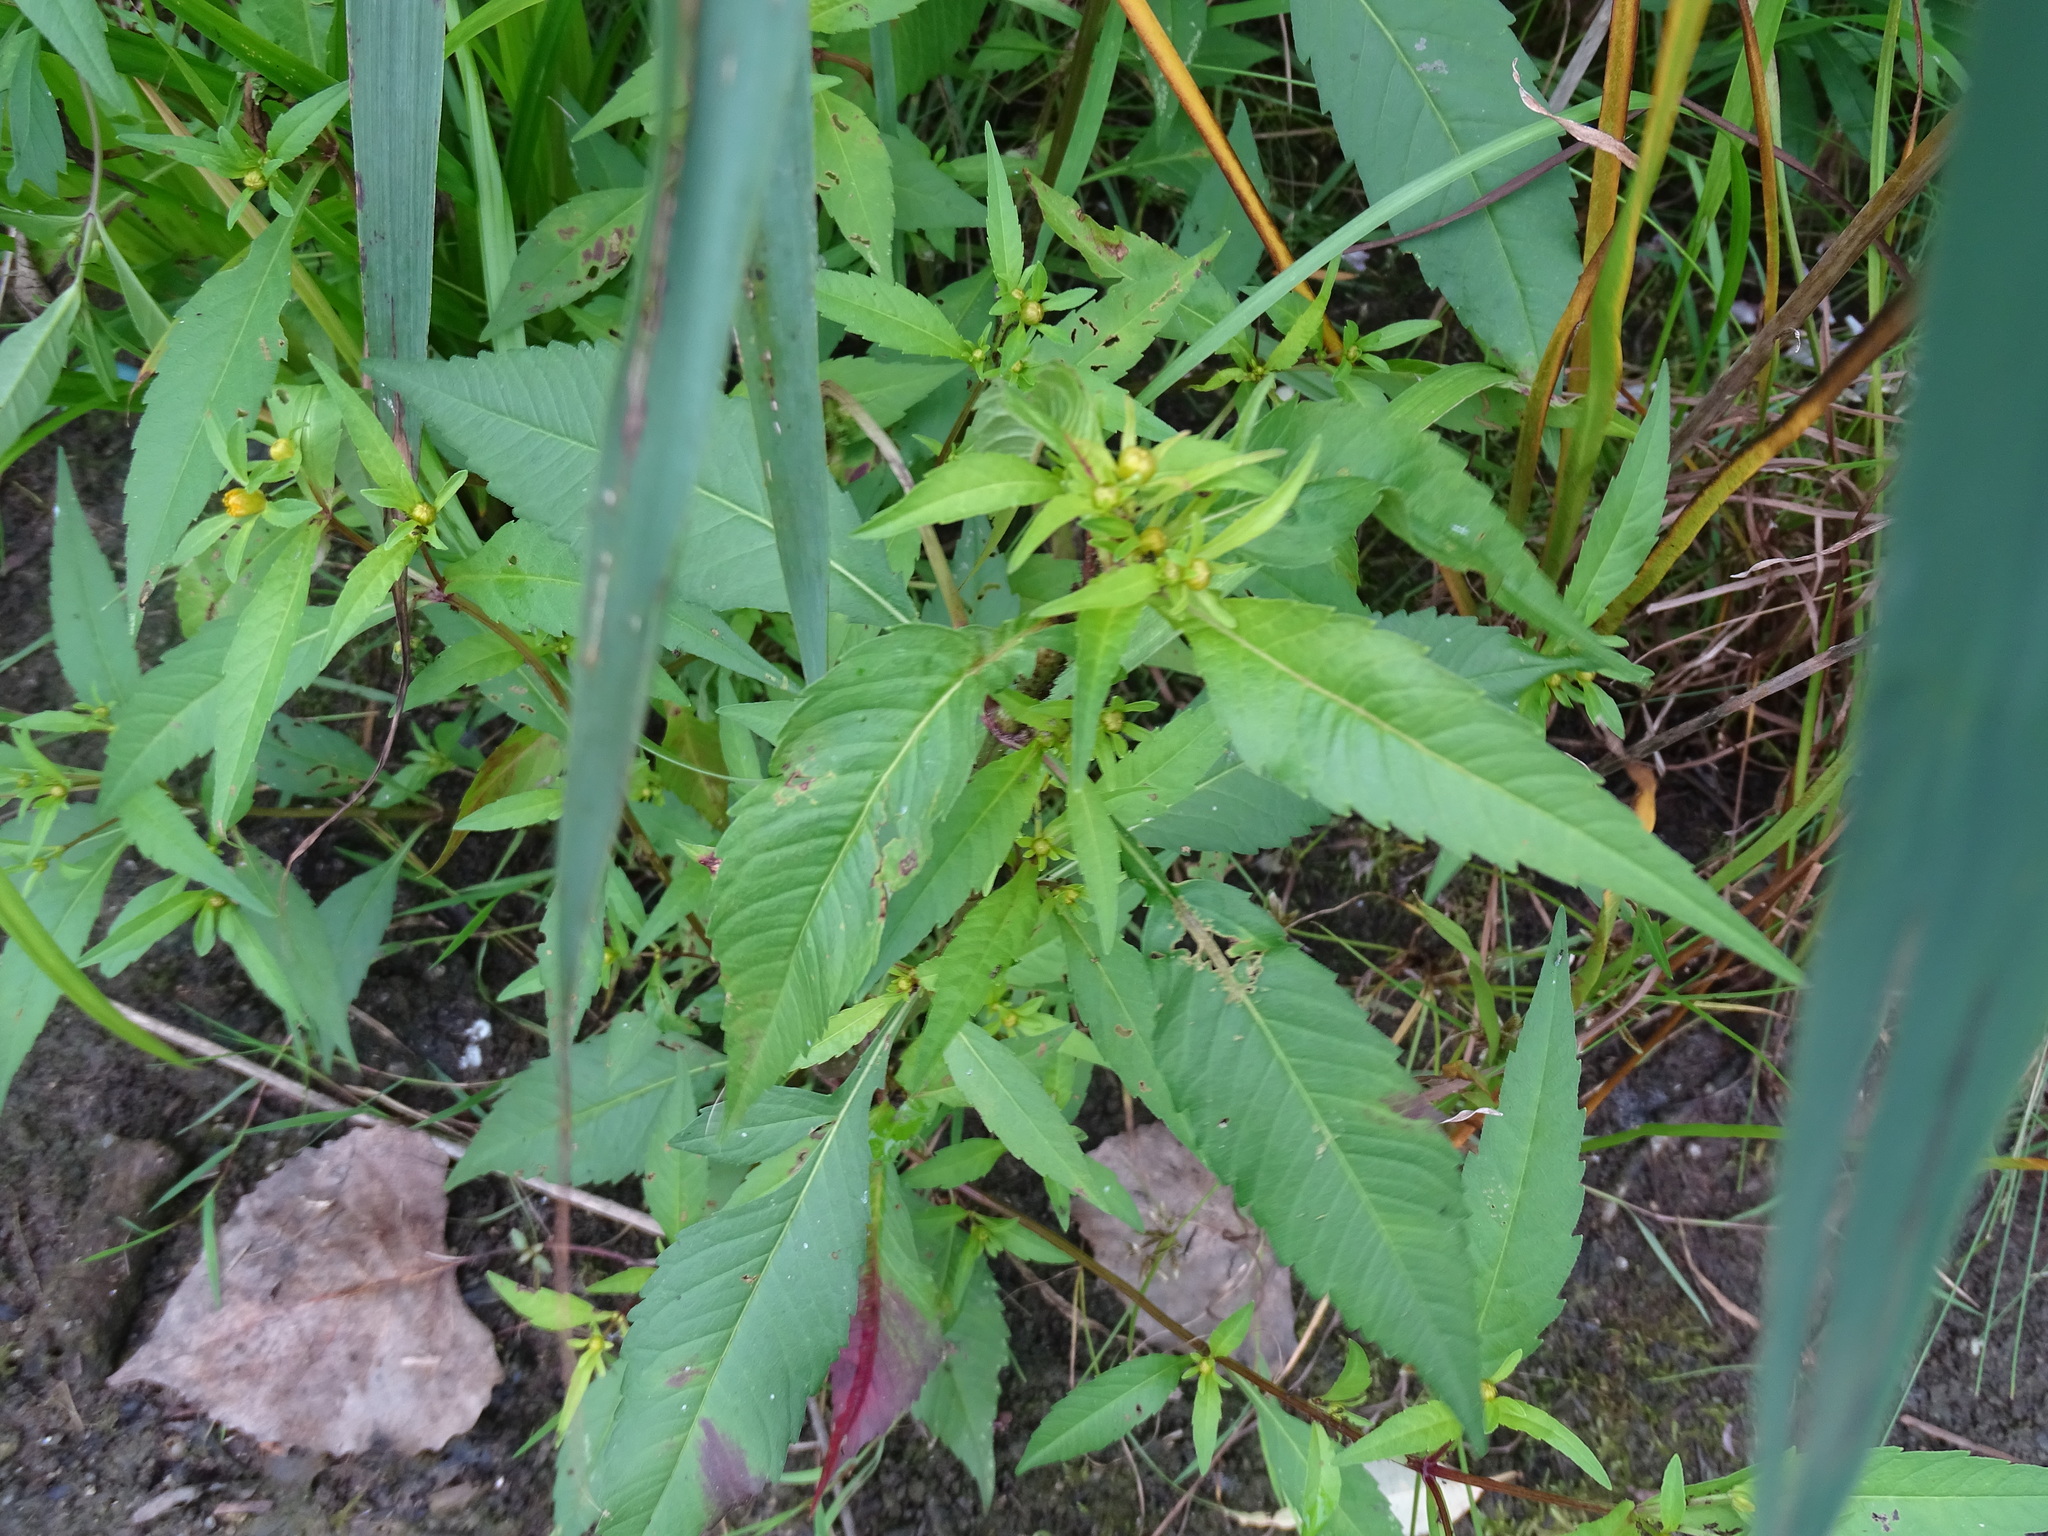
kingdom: Plantae
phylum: Tracheophyta
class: Magnoliopsida
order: Asterales
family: Asteraceae
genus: Bidens
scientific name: Bidens connata
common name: London bur-marigold
